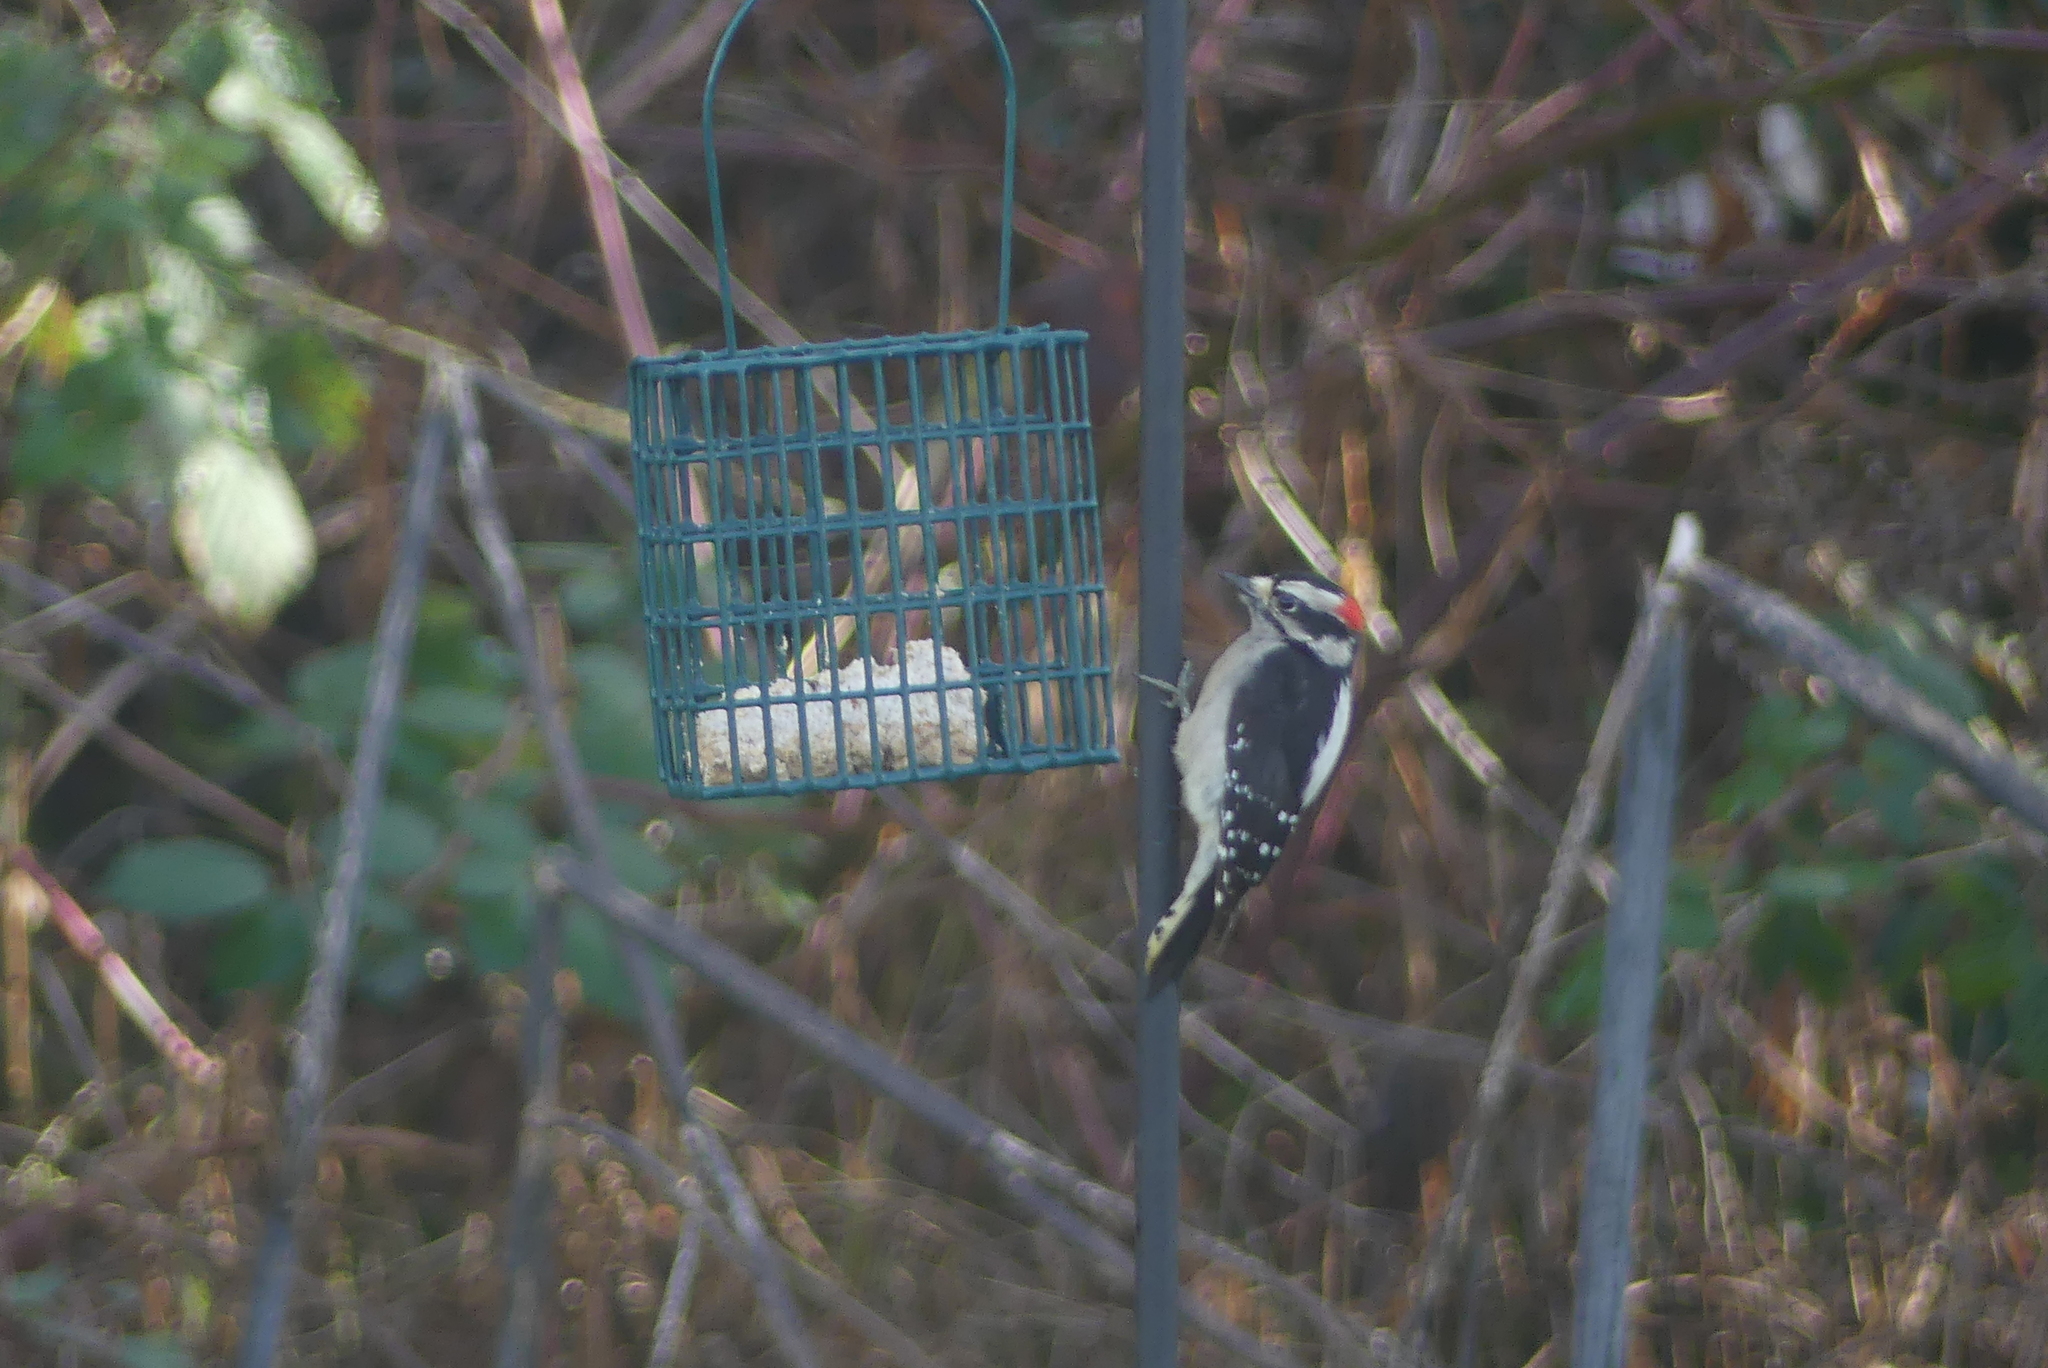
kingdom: Animalia
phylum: Chordata
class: Aves
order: Piciformes
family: Picidae
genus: Dryobates
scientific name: Dryobates pubescens
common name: Downy woodpecker
